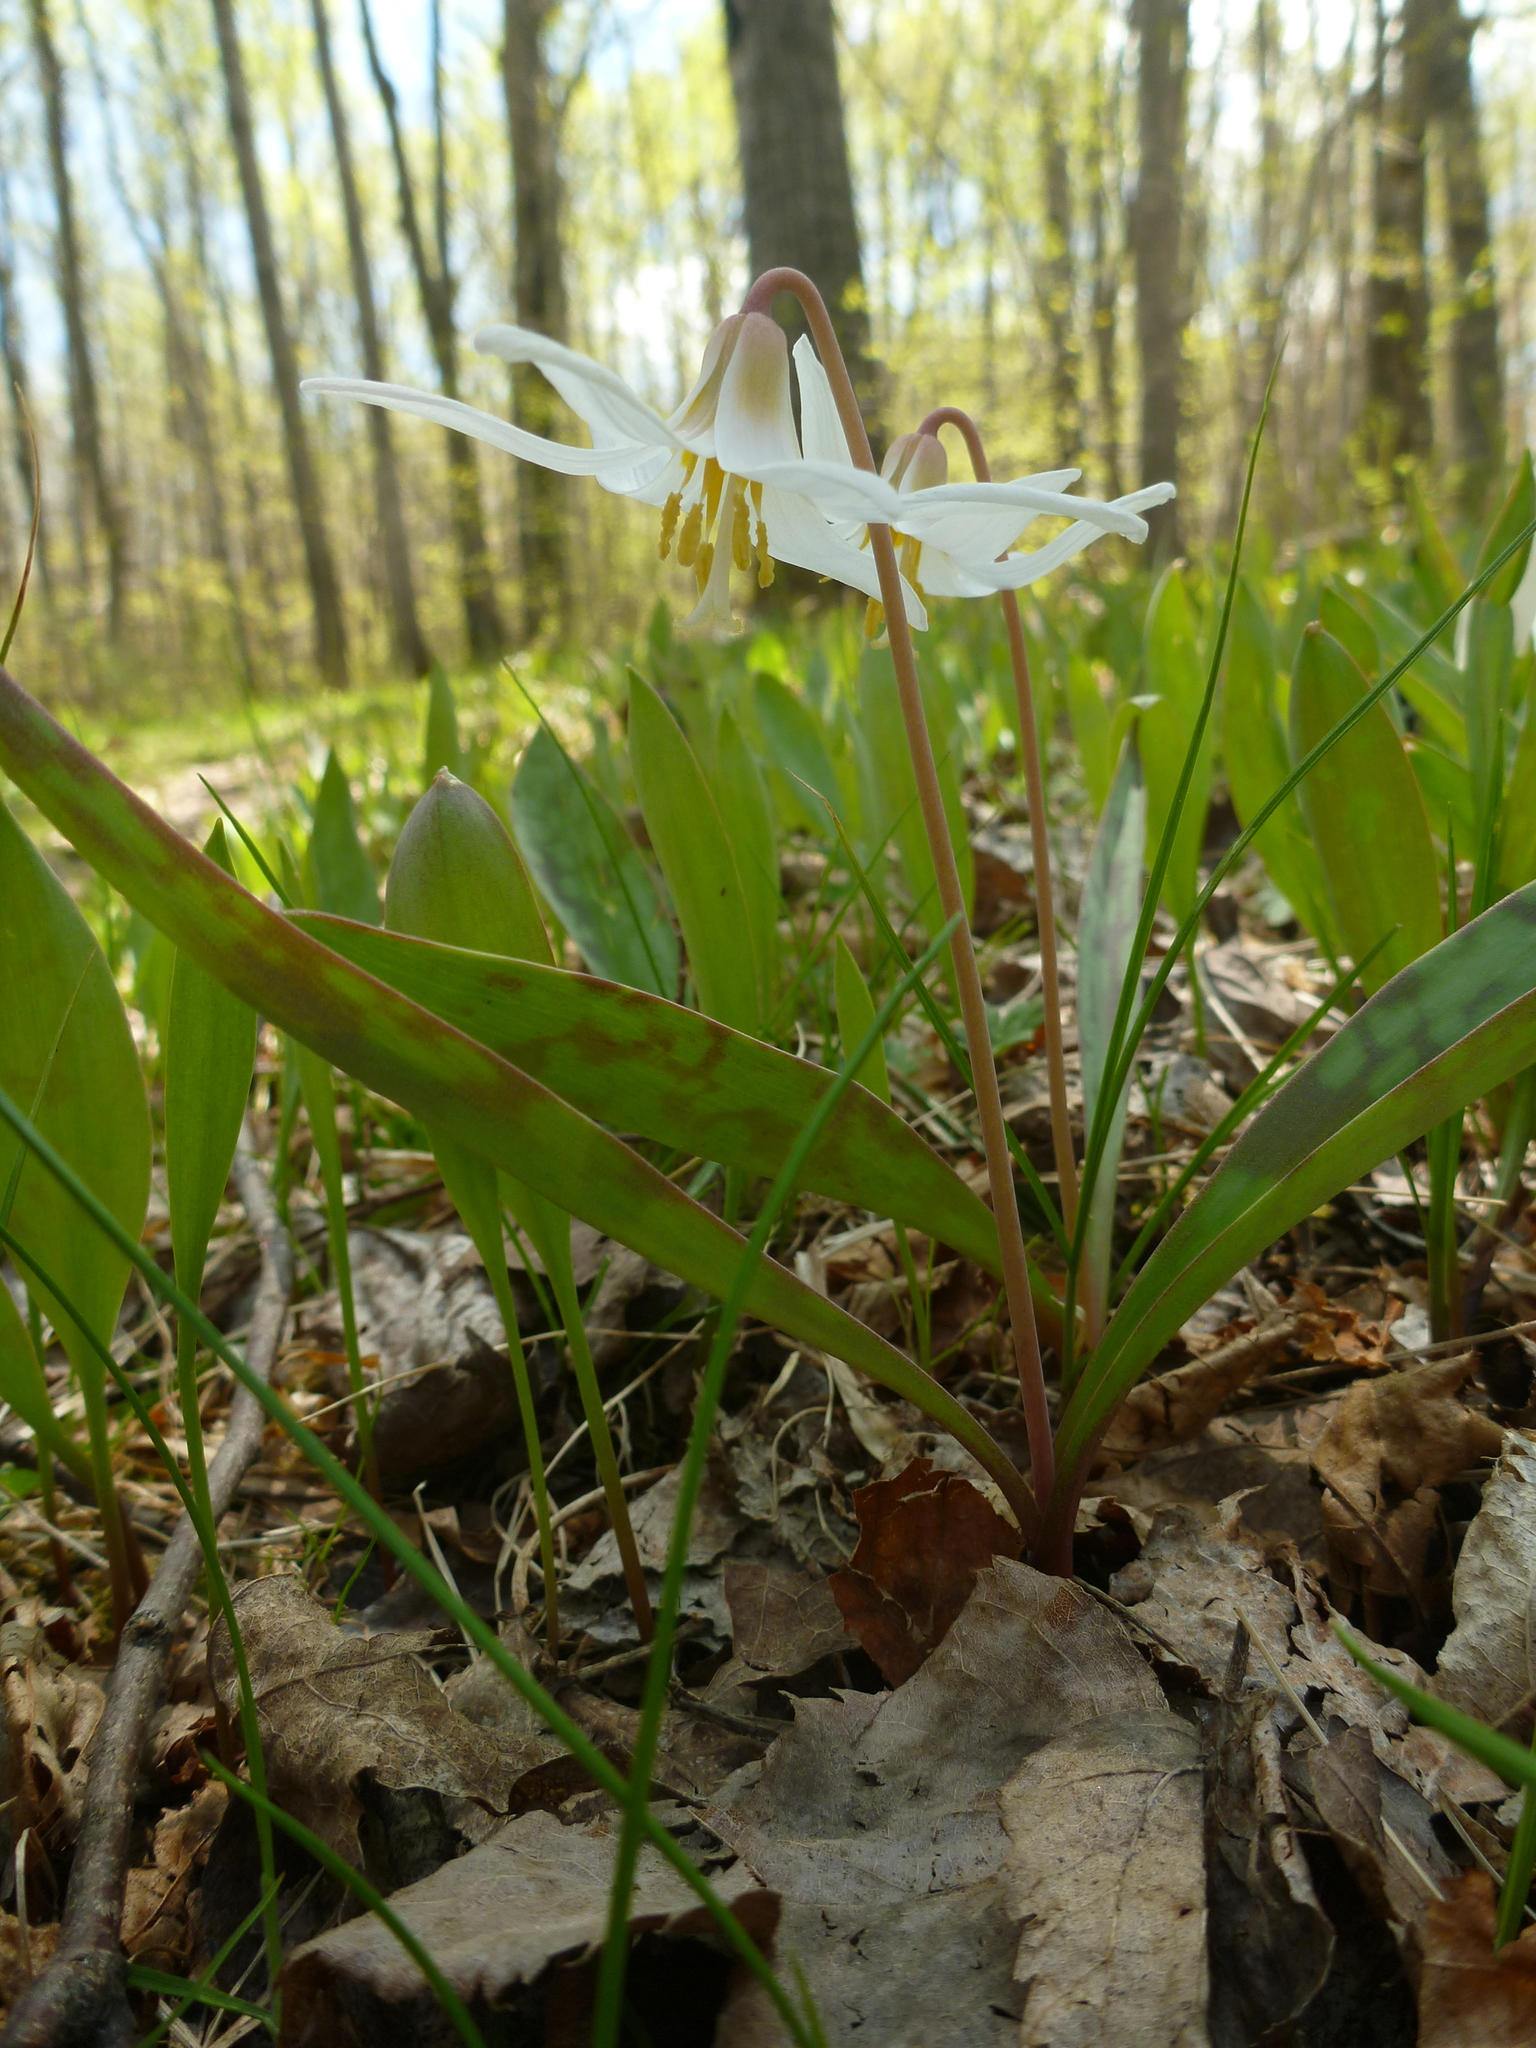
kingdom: Plantae
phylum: Tracheophyta
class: Liliopsida
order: Liliales
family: Liliaceae
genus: Erythronium
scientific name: Erythronium albidum
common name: White trout-lily
